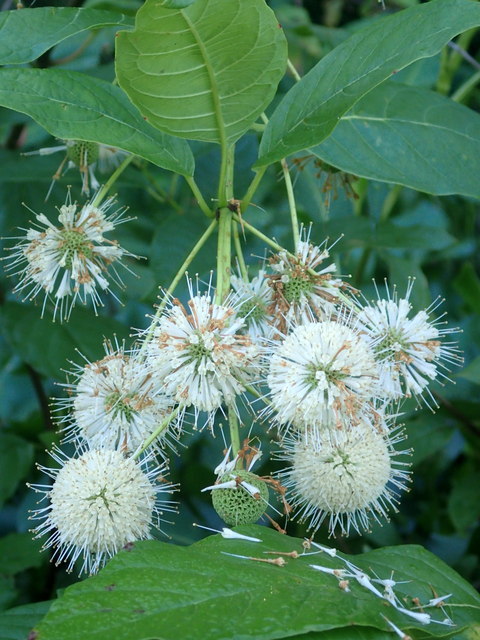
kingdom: Plantae
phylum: Tracheophyta
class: Magnoliopsida
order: Gentianales
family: Rubiaceae
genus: Cephalanthus
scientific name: Cephalanthus occidentalis
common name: Button-willow
